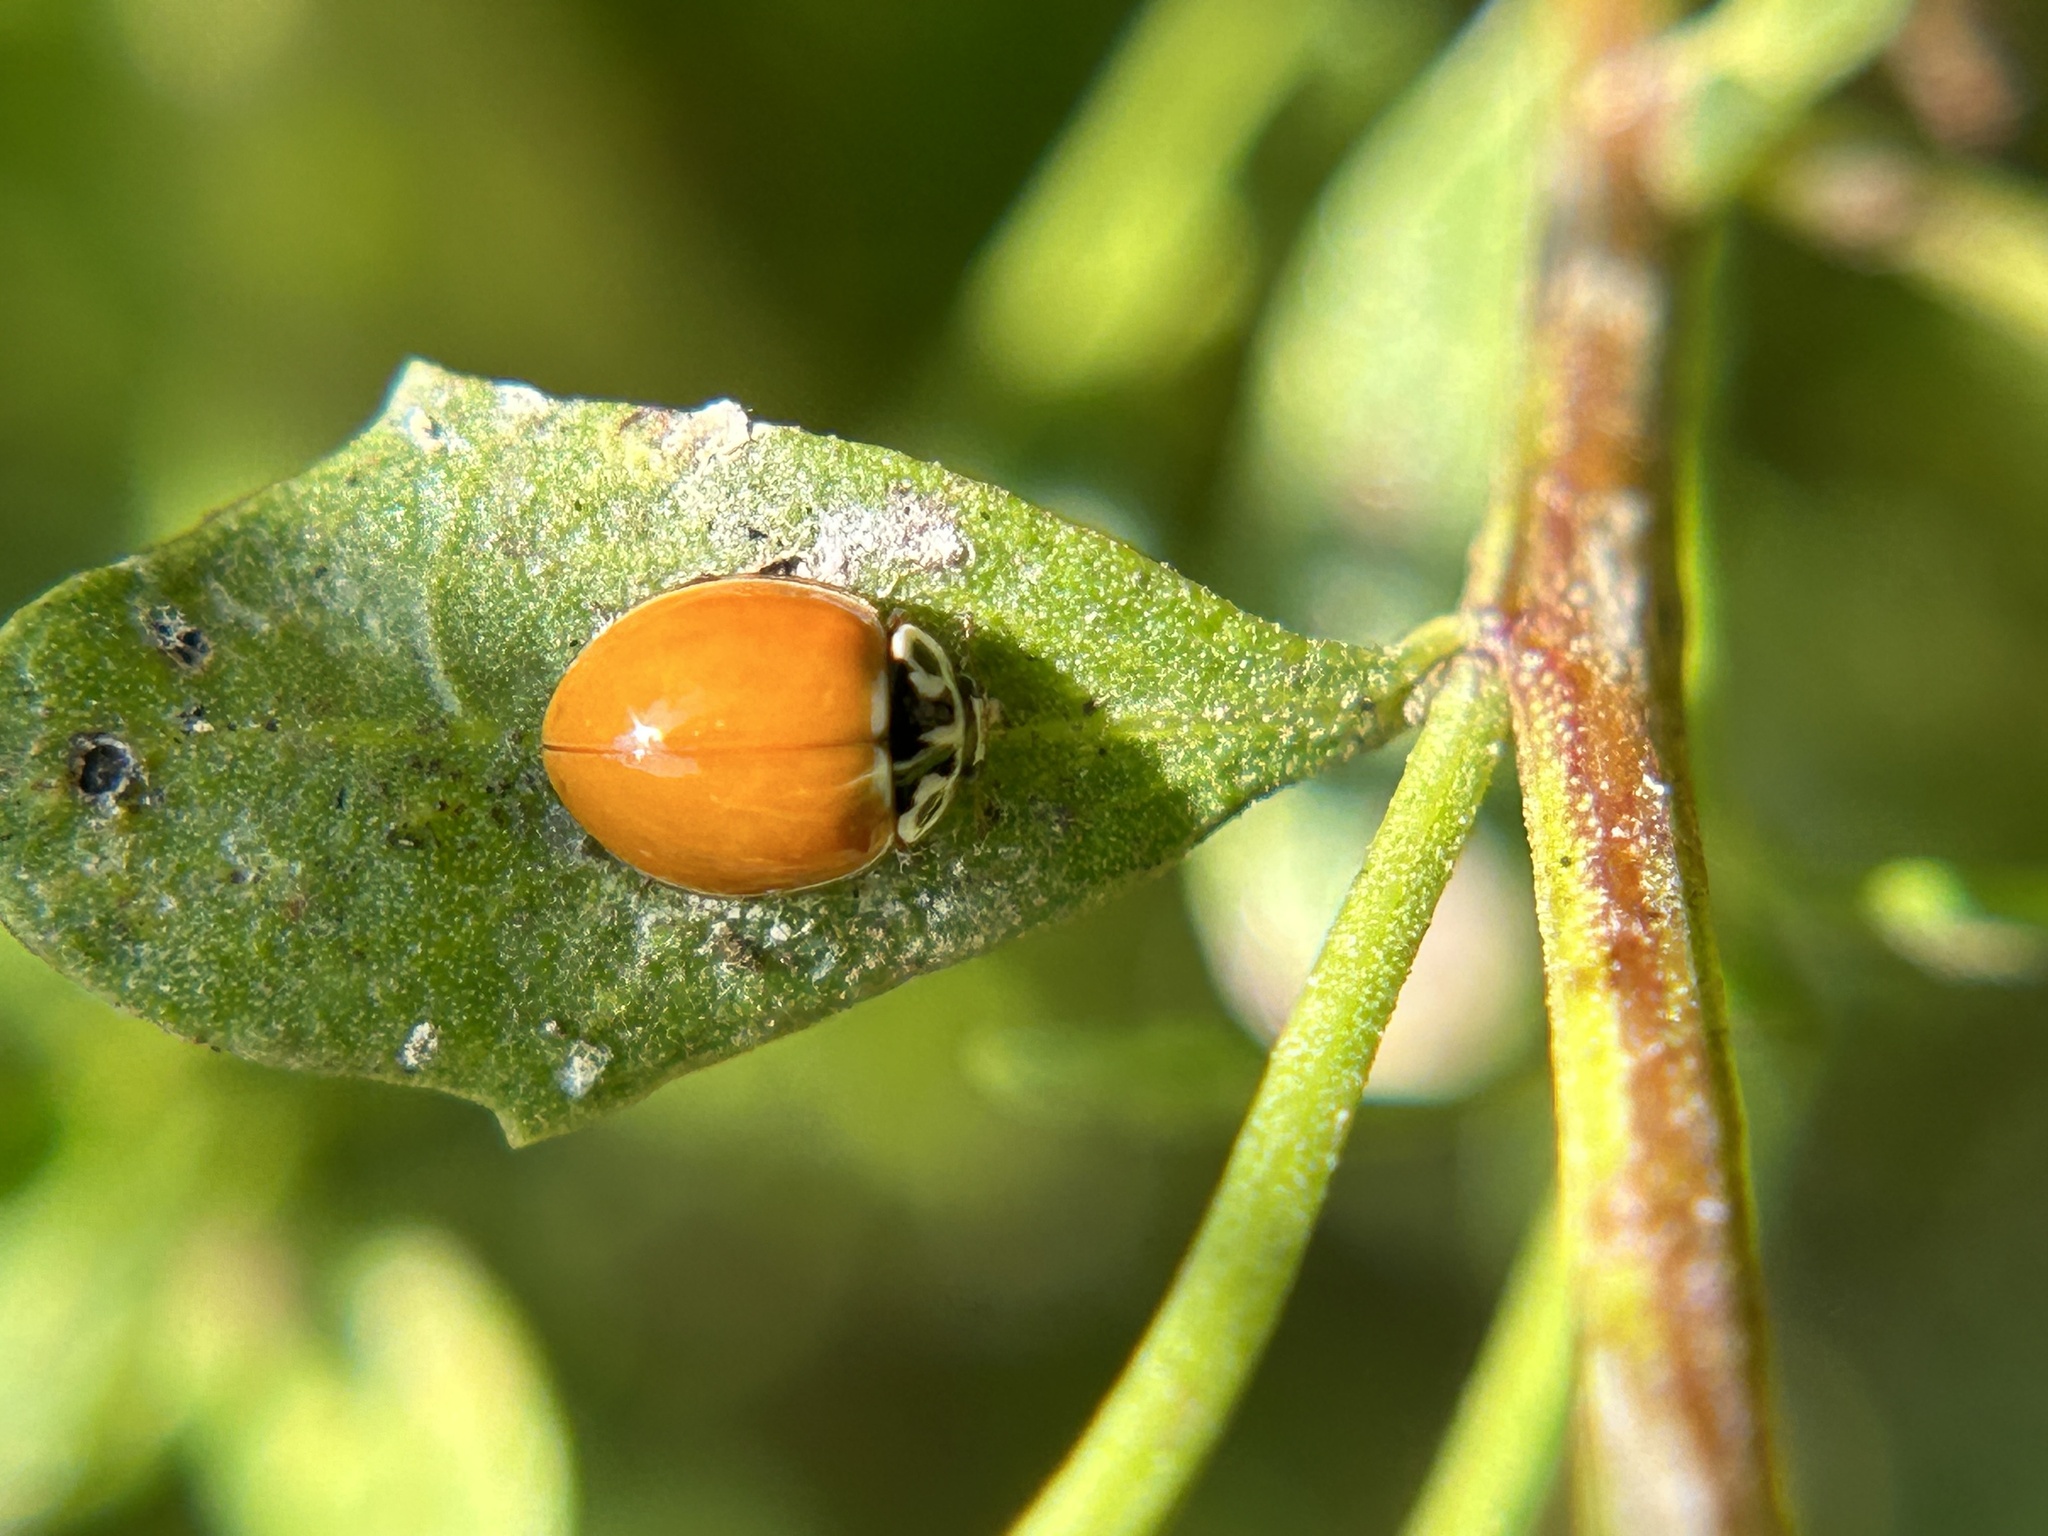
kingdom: Animalia
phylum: Arthropoda
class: Insecta
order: Coleoptera
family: Coccinellidae
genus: Cycloneda
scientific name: Cycloneda polita
